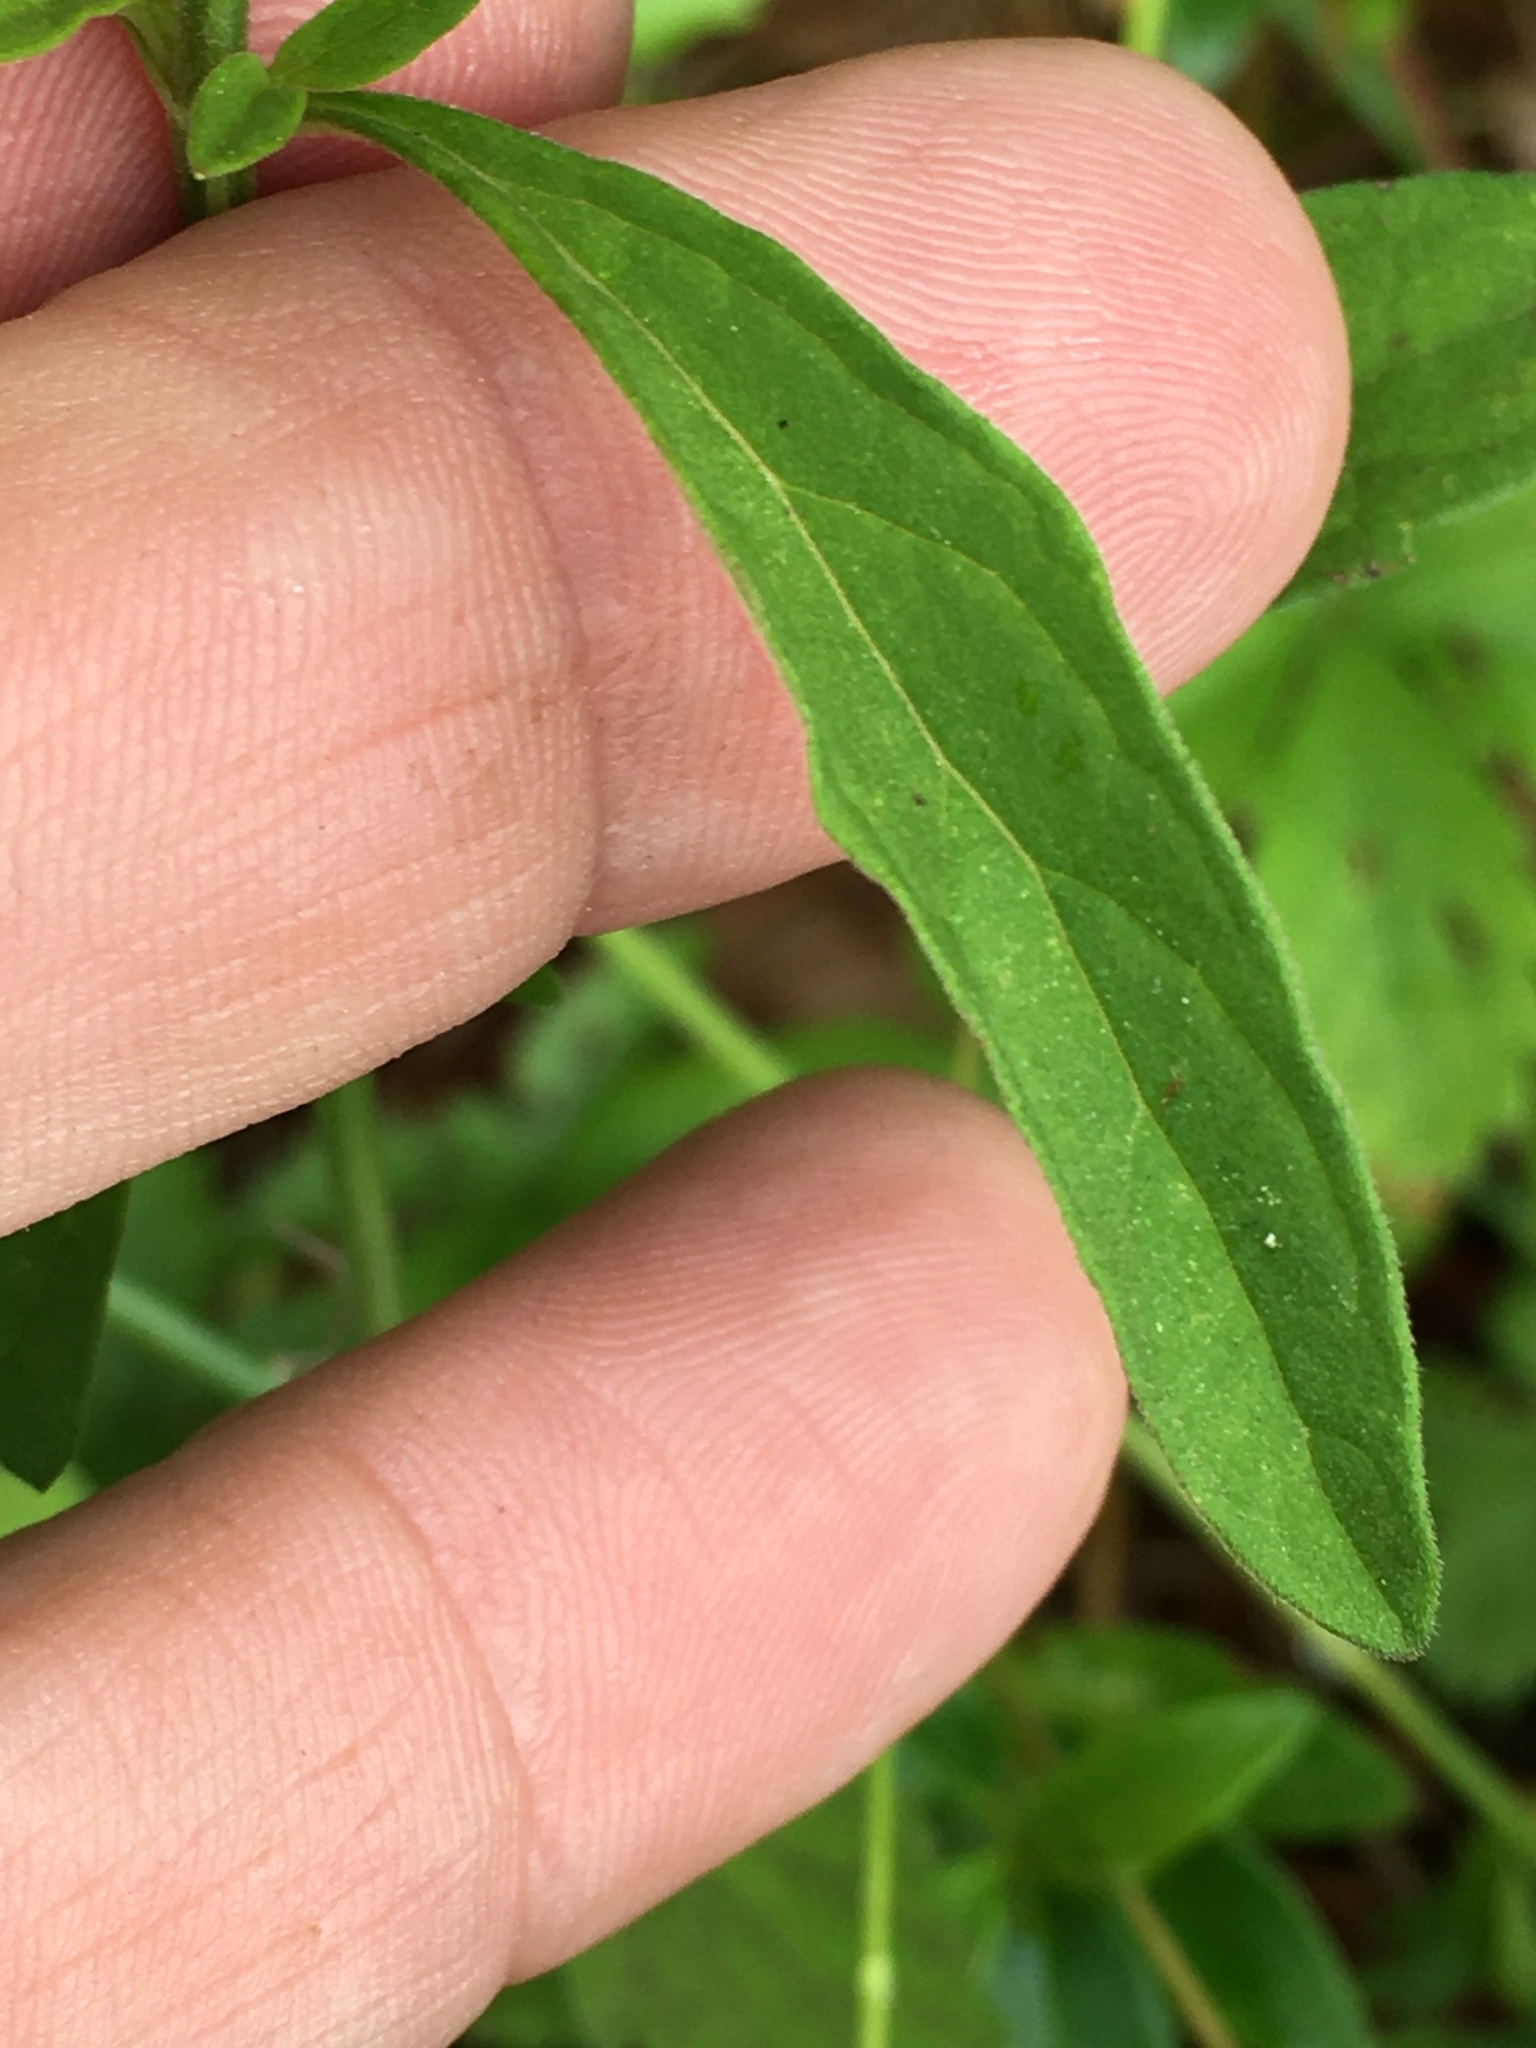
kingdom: Plantae
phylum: Tracheophyta
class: Magnoliopsida
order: Lamiales
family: Lamiaceae
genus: Scutellaria
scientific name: Scutellaria integrifolia
